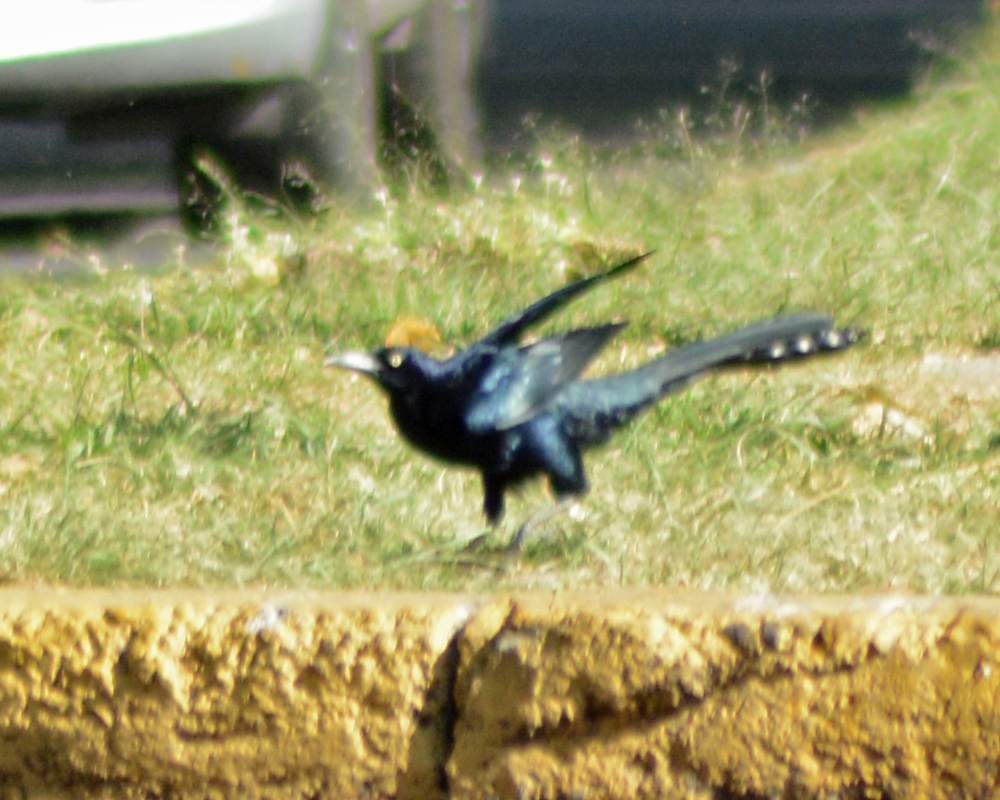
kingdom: Animalia
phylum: Chordata
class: Aves
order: Passeriformes
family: Icteridae
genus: Quiscalus
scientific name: Quiscalus mexicanus
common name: Great-tailed grackle
